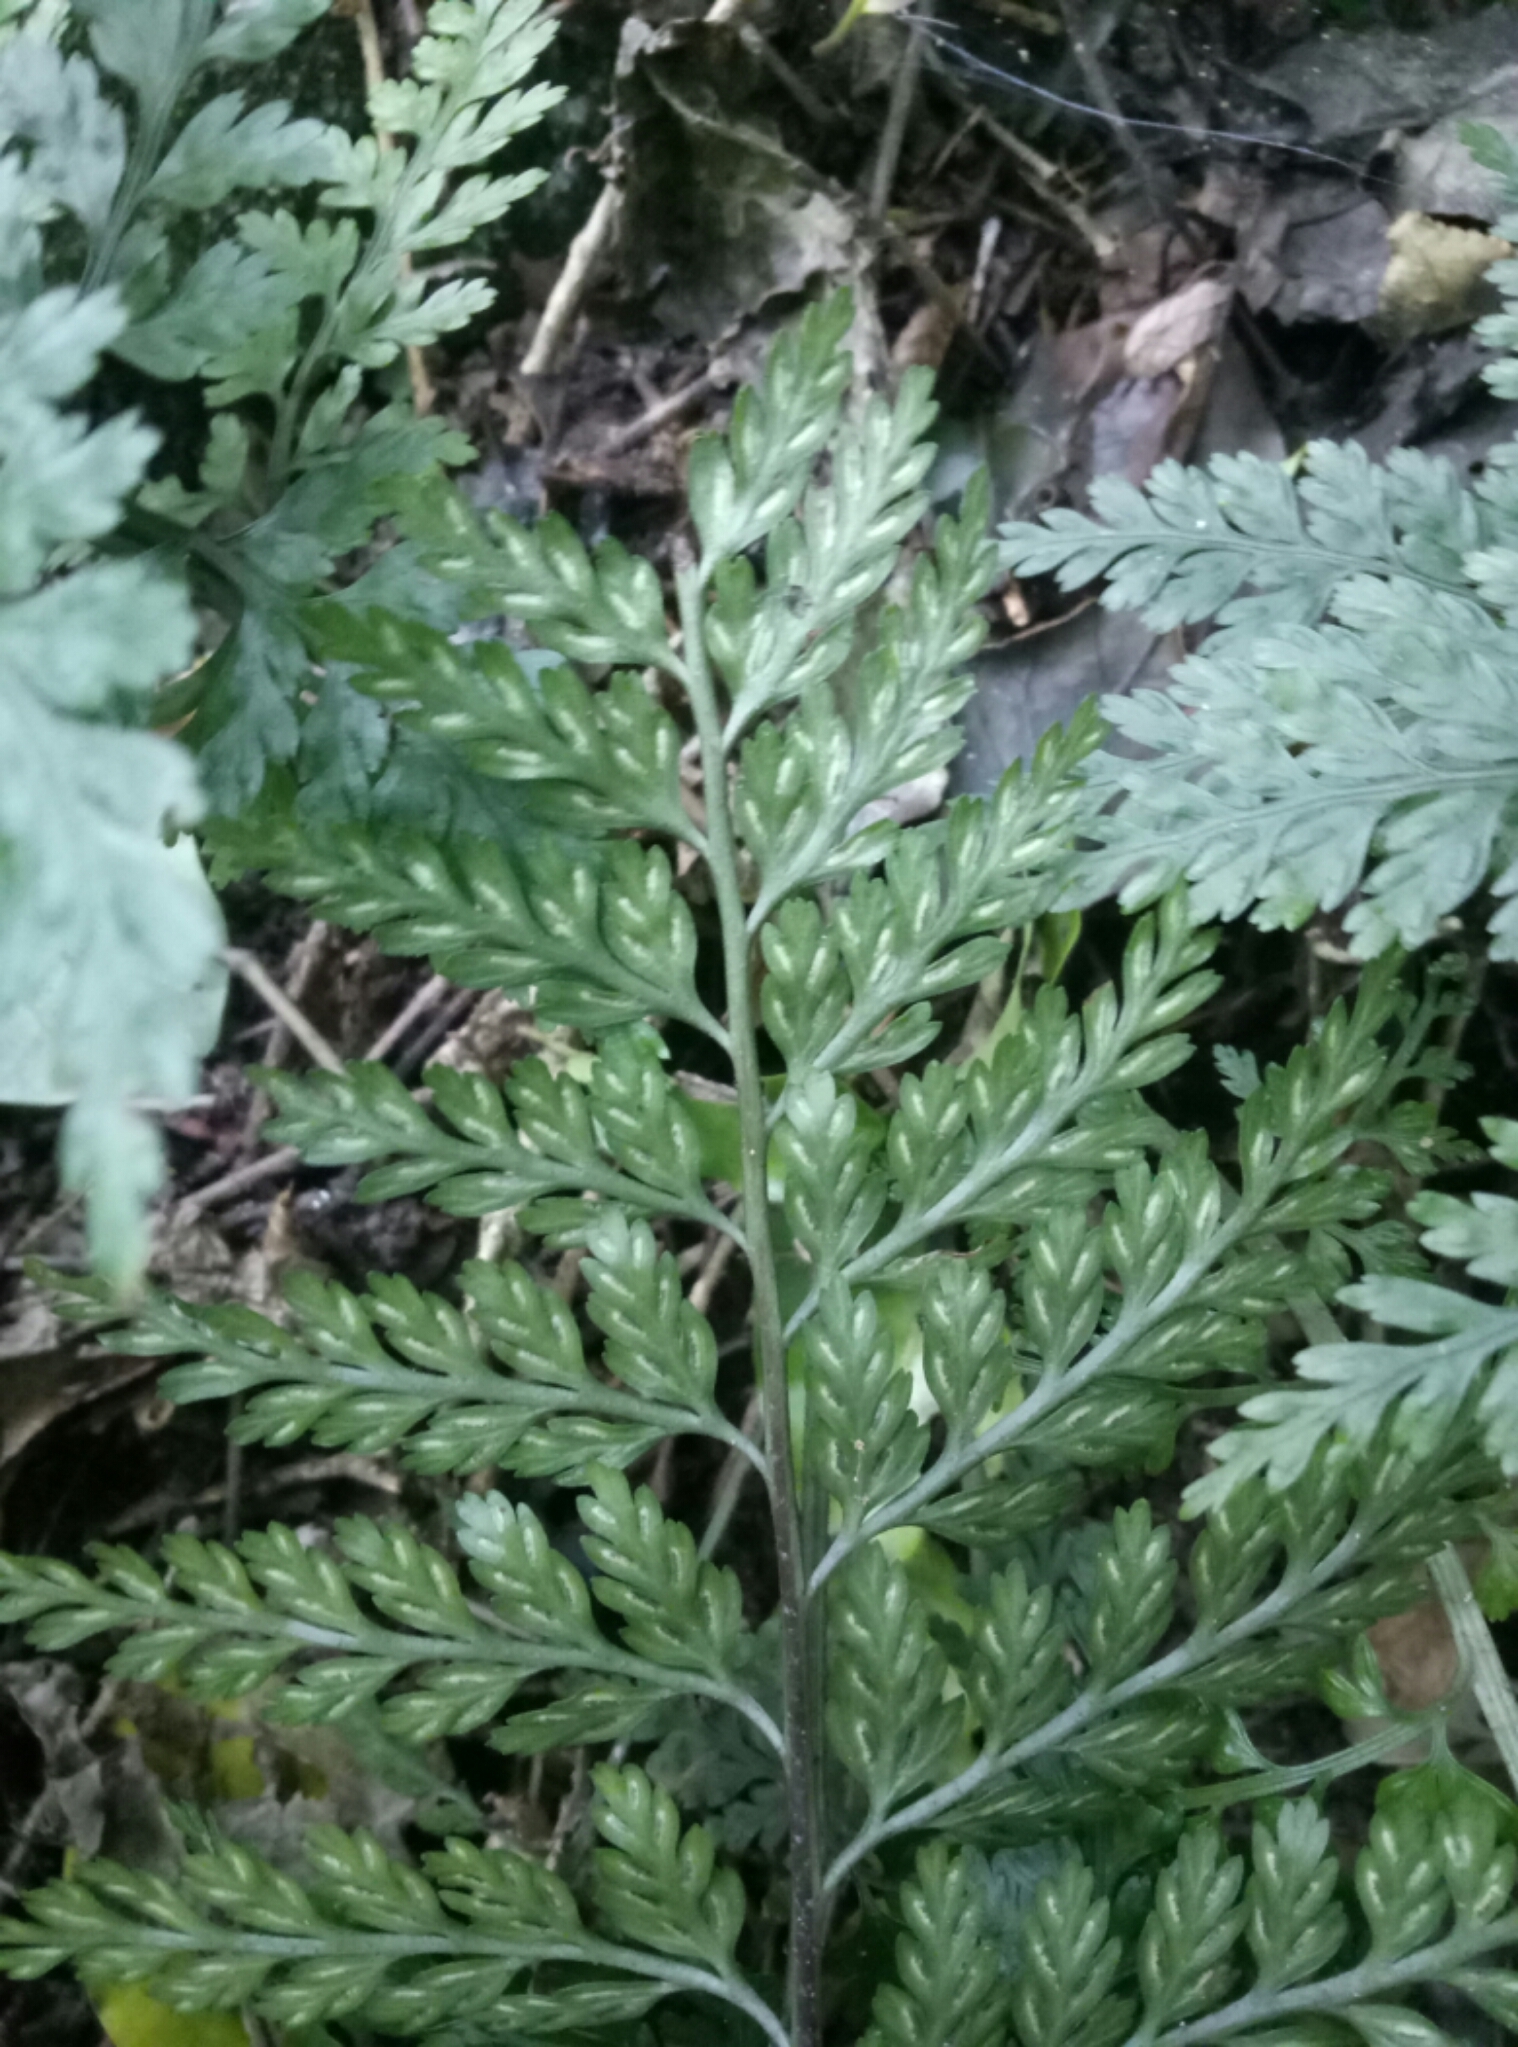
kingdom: Plantae
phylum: Tracheophyta
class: Polypodiopsida
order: Polypodiales
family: Aspleniaceae
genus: Asplenium
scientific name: Asplenium
